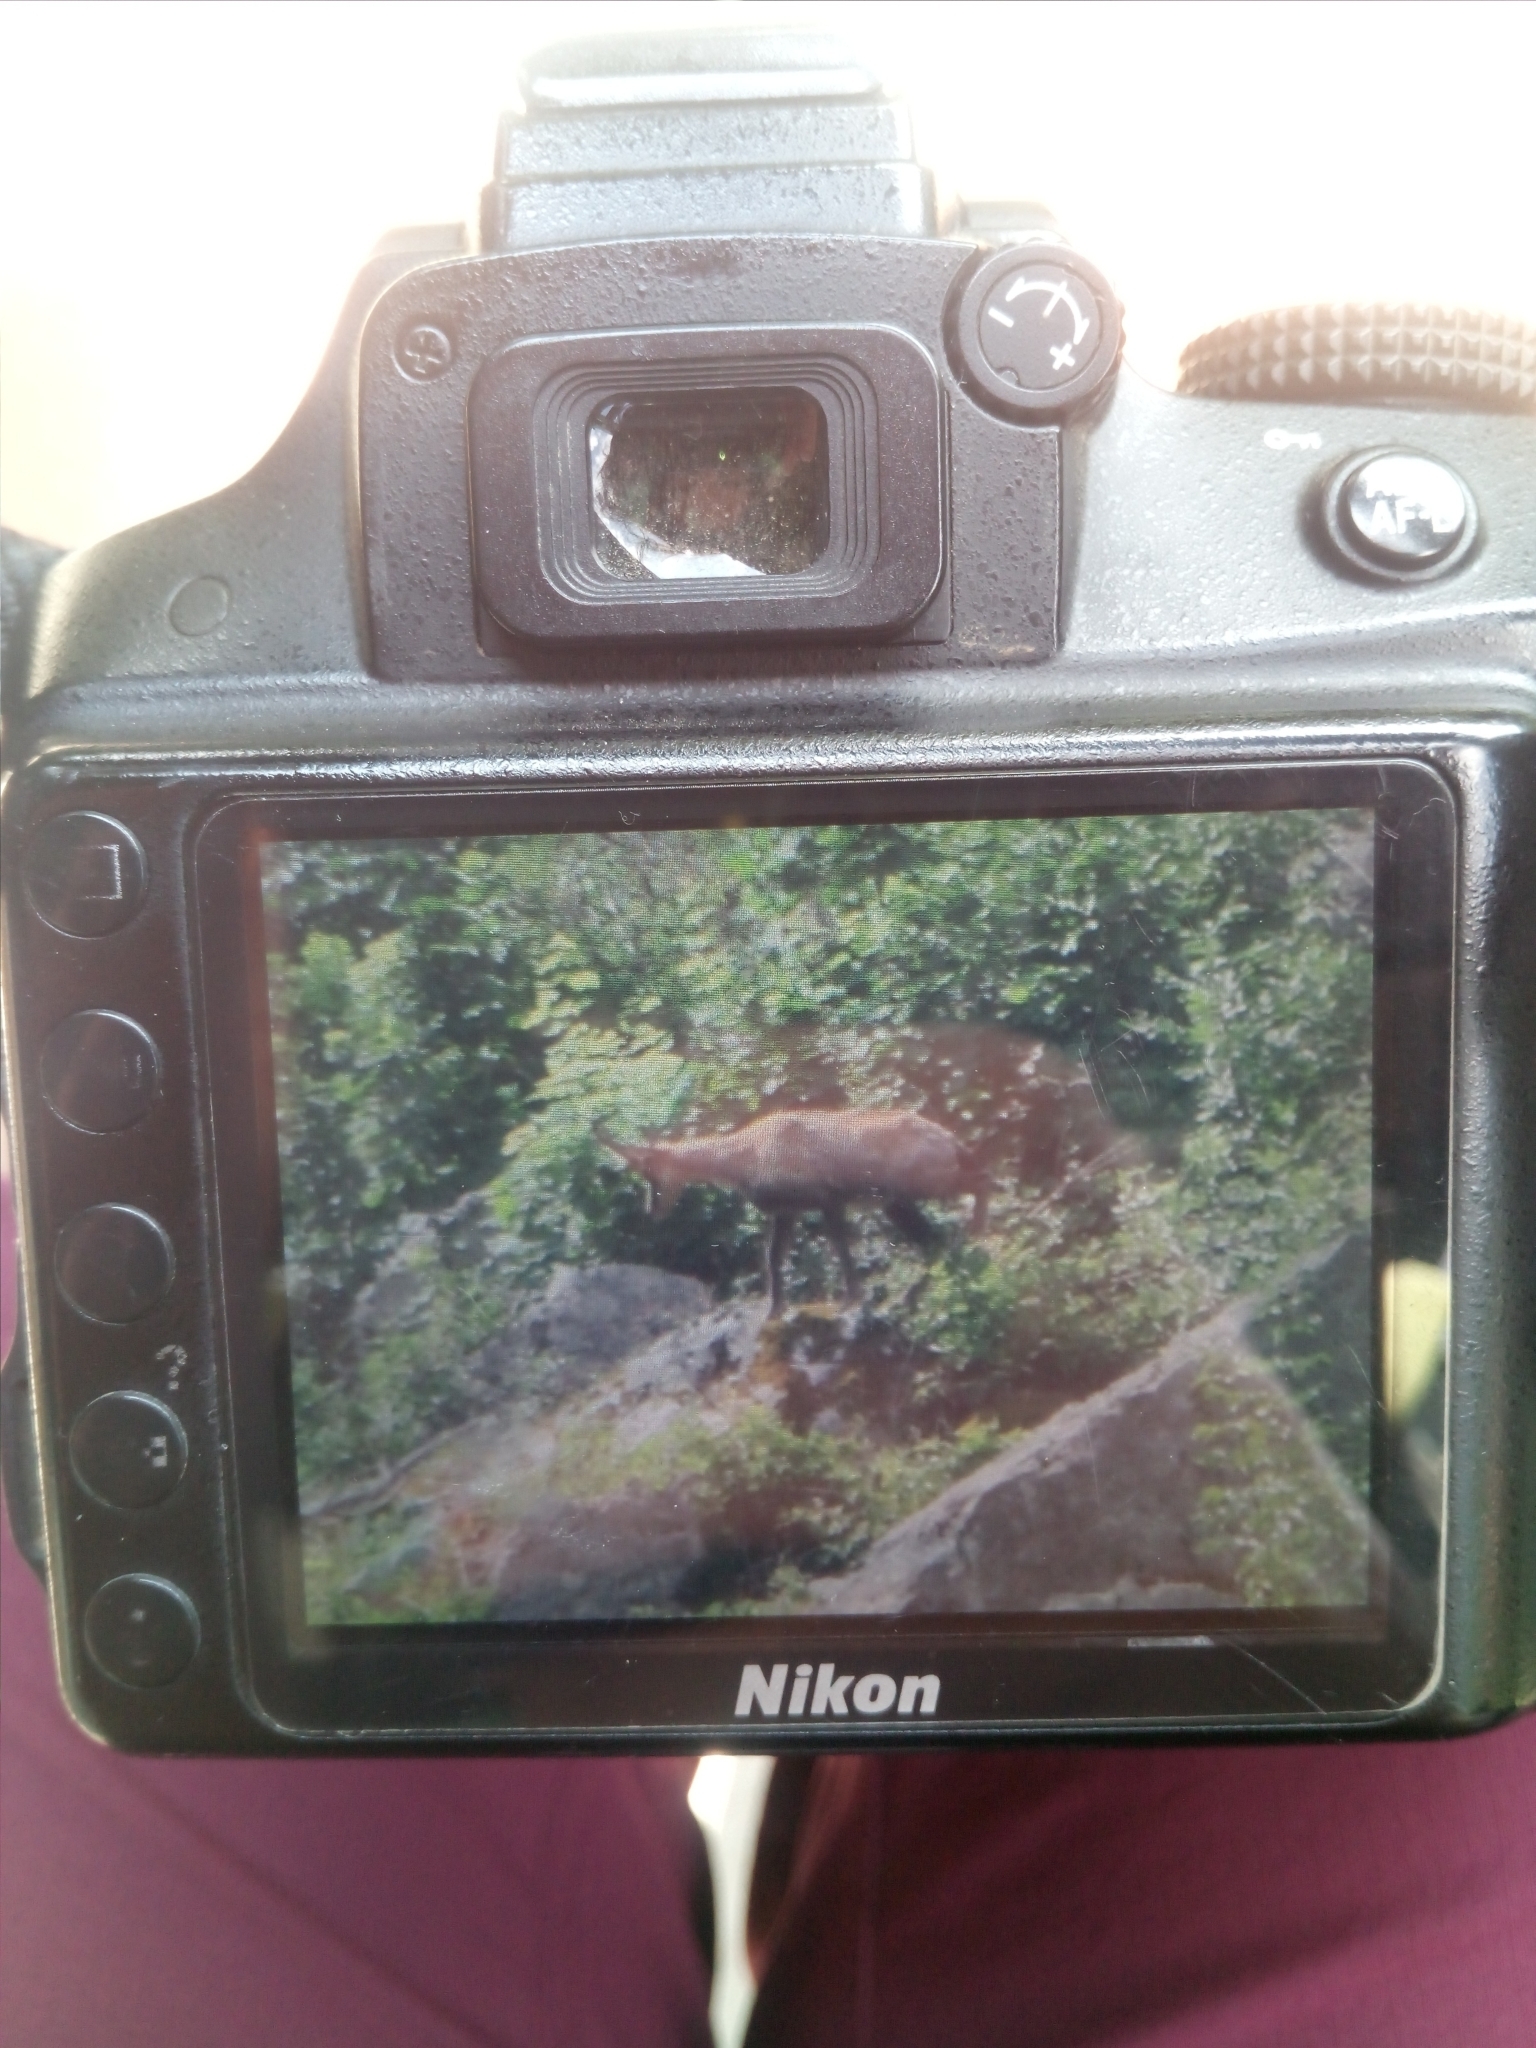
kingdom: Animalia
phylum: Chordata
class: Mammalia
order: Artiodactyla
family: Bovidae
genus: Rupicapra
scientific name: Rupicapra pyrenaica
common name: Pyrenean chamois
